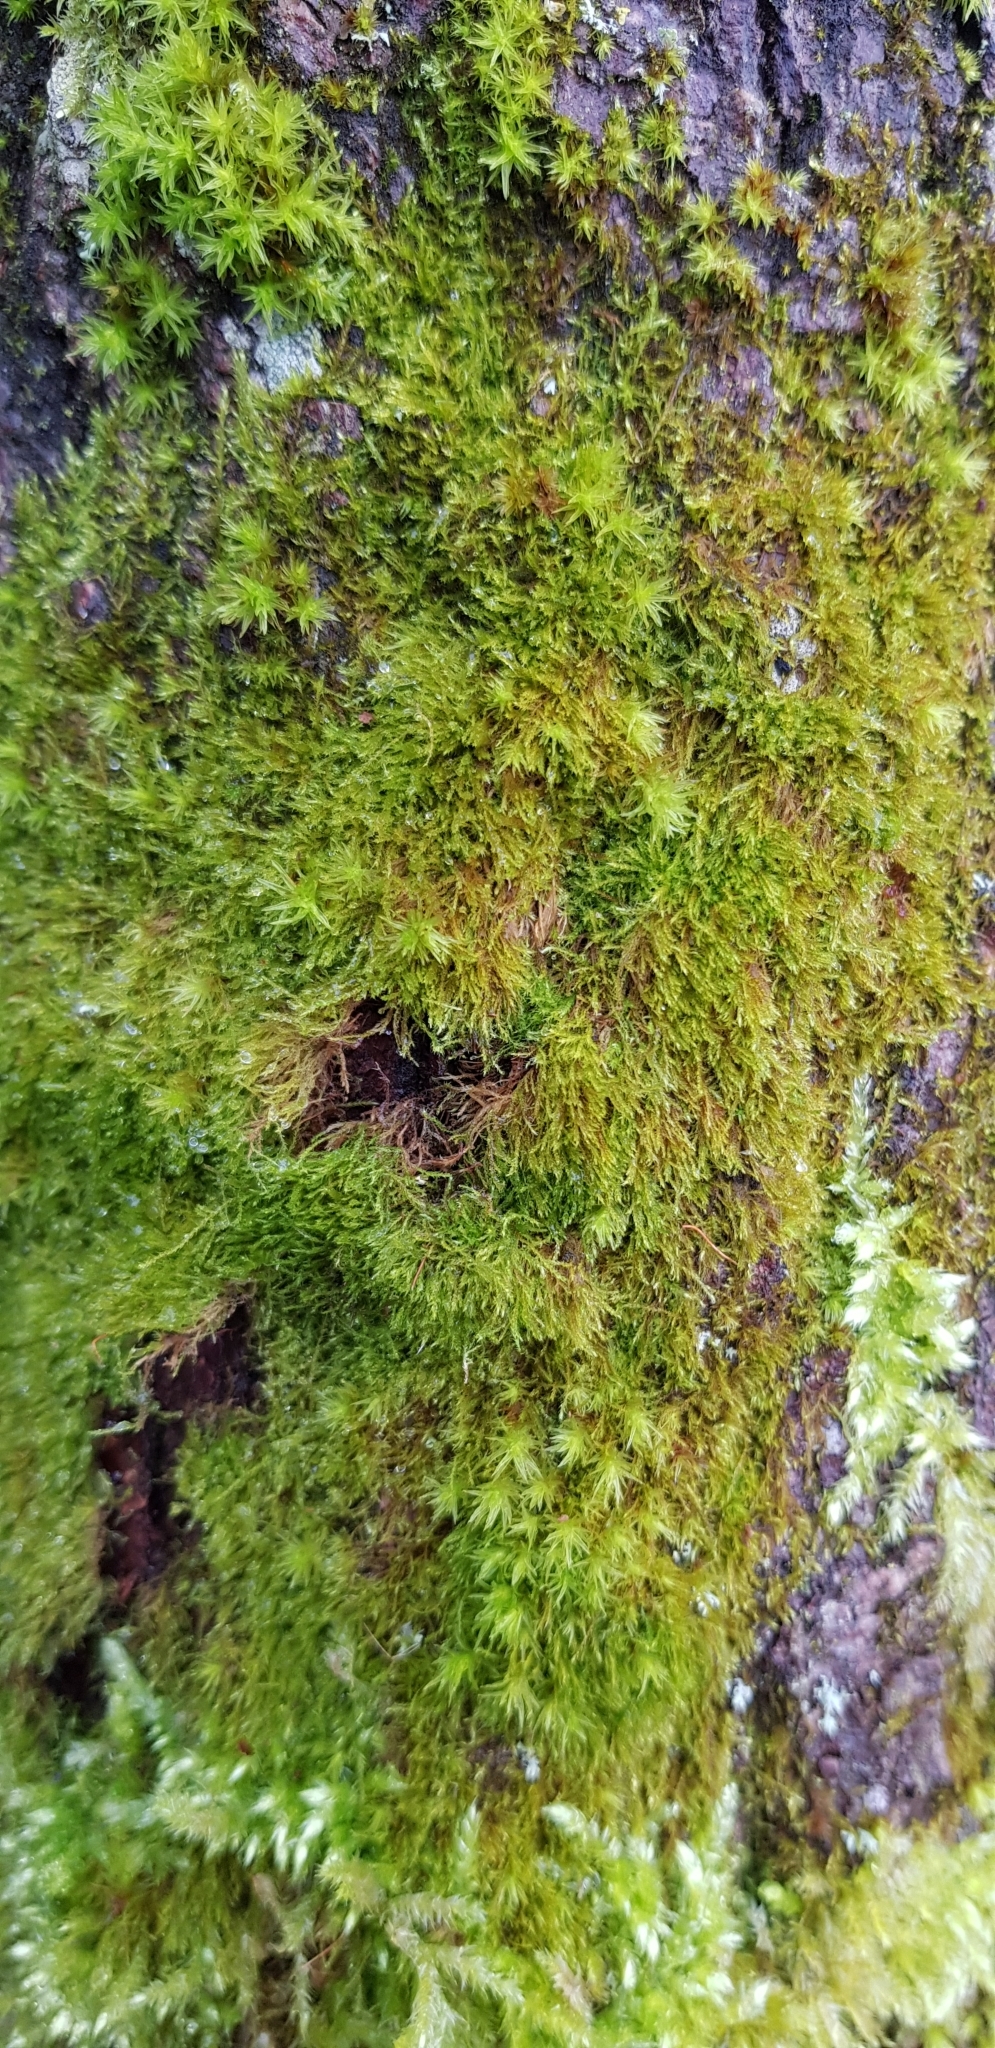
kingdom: Plantae
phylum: Bryophyta
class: Bryopsida
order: Hypnales
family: Amblystegiaceae
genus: Amblystegium
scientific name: Amblystegium serpens
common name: Jurkatzka's feather moss
